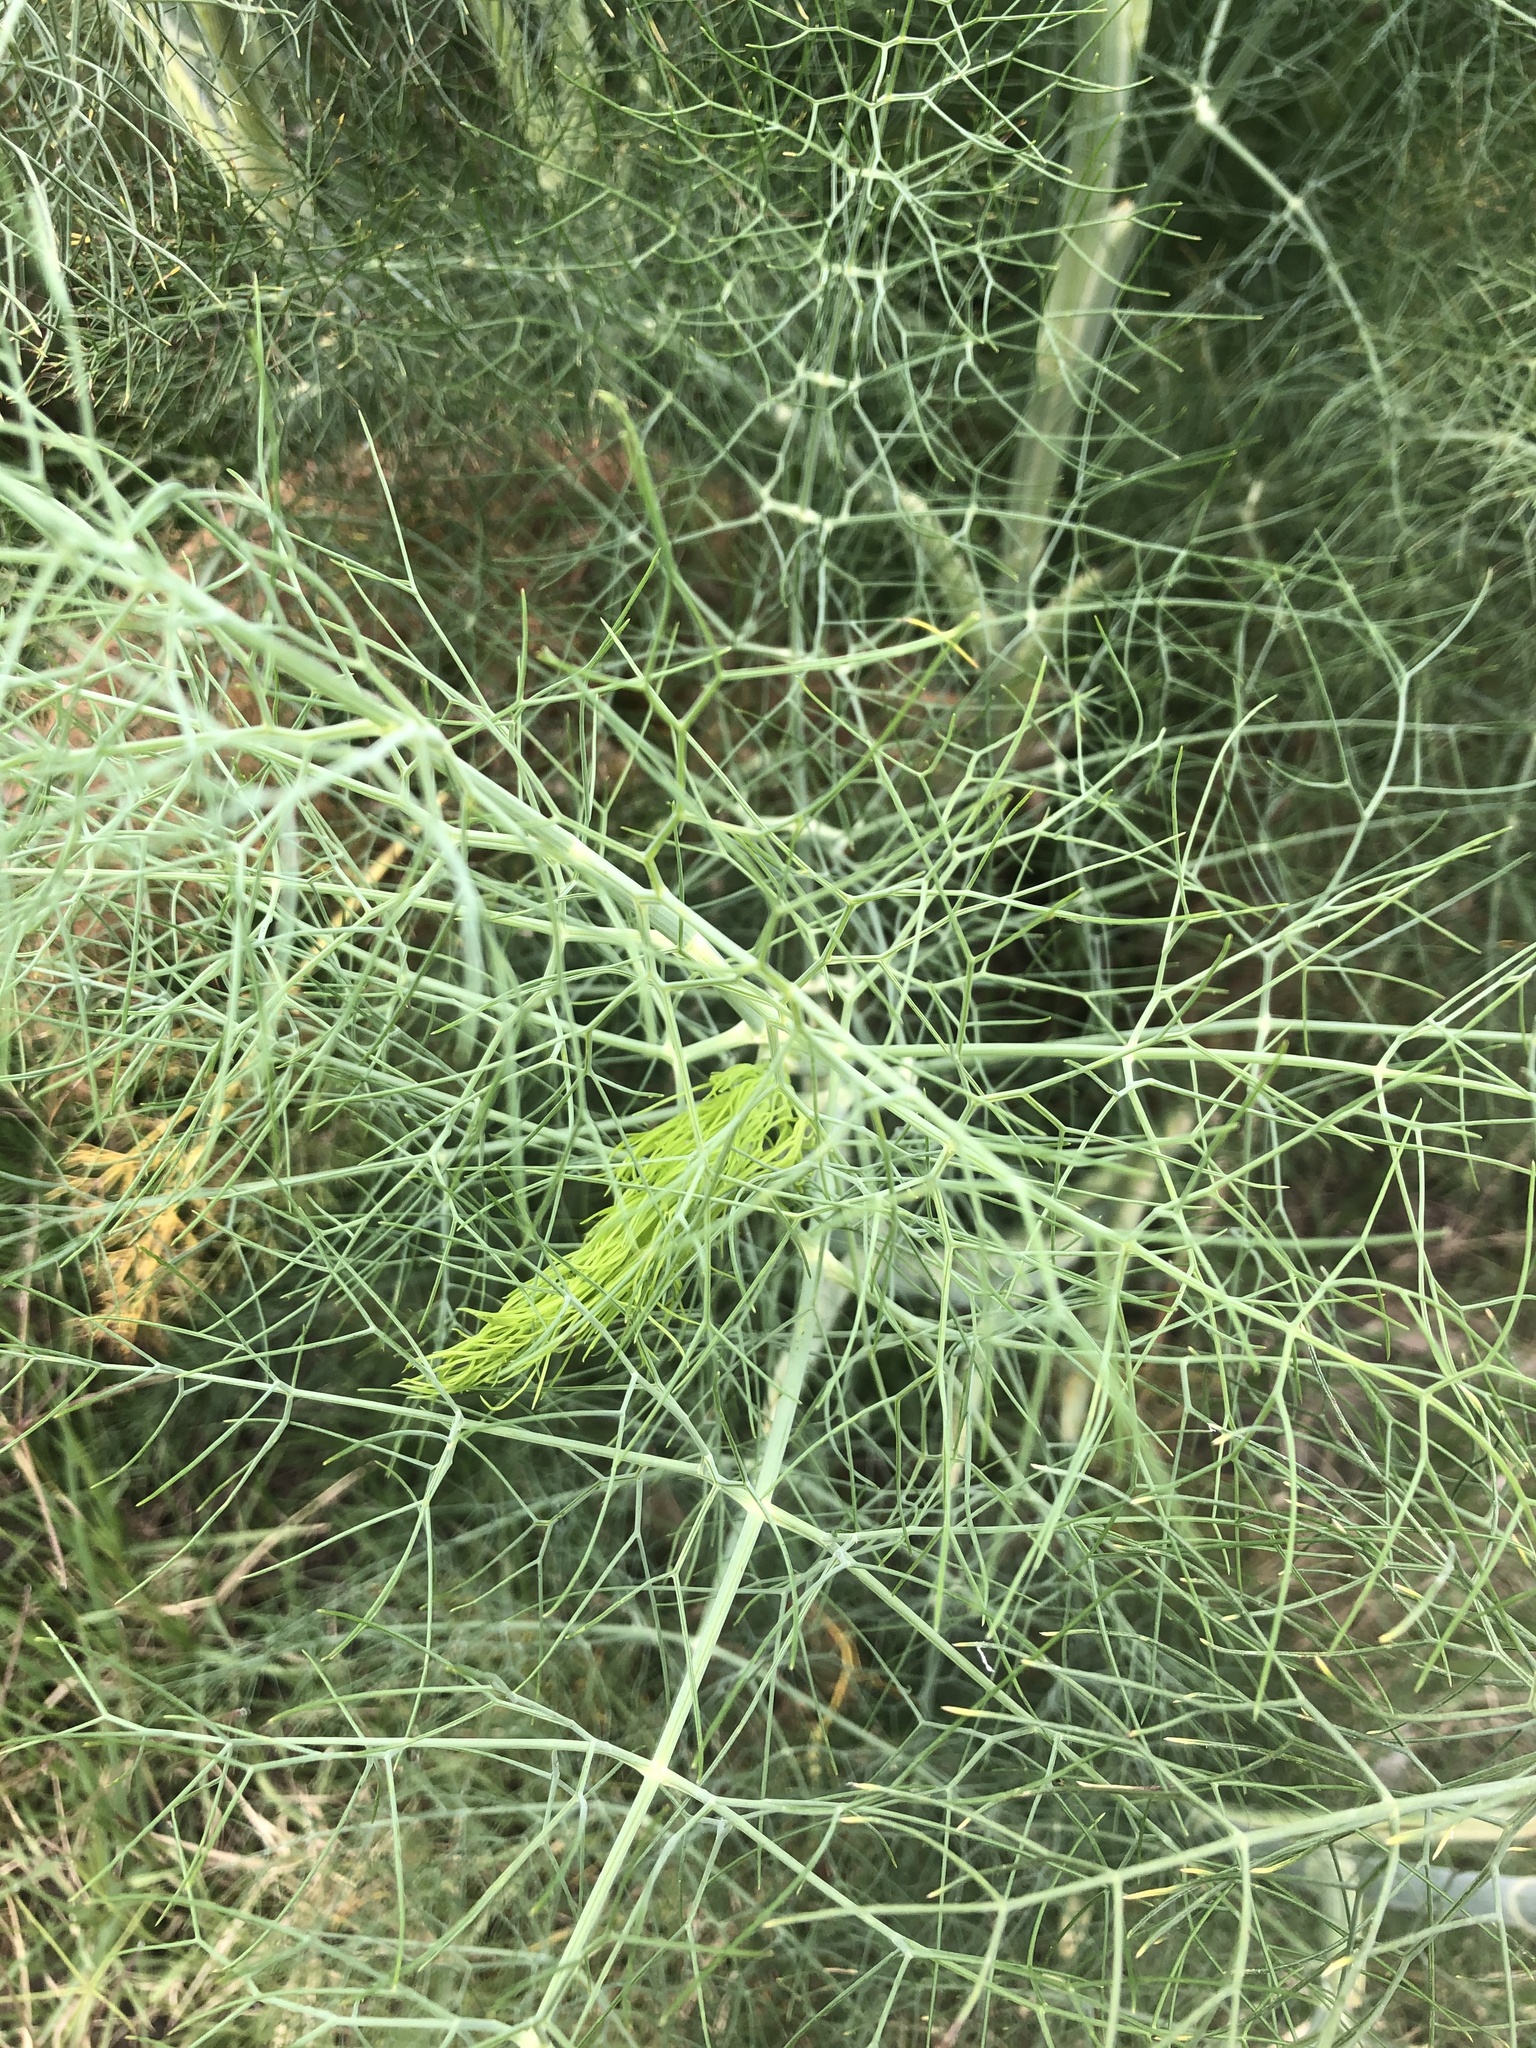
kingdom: Plantae
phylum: Tracheophyta
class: Magnoliopsida
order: Apiales
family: Apiaceae
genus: Foeniculum
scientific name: Foeniculum vulgare
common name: Fennel
